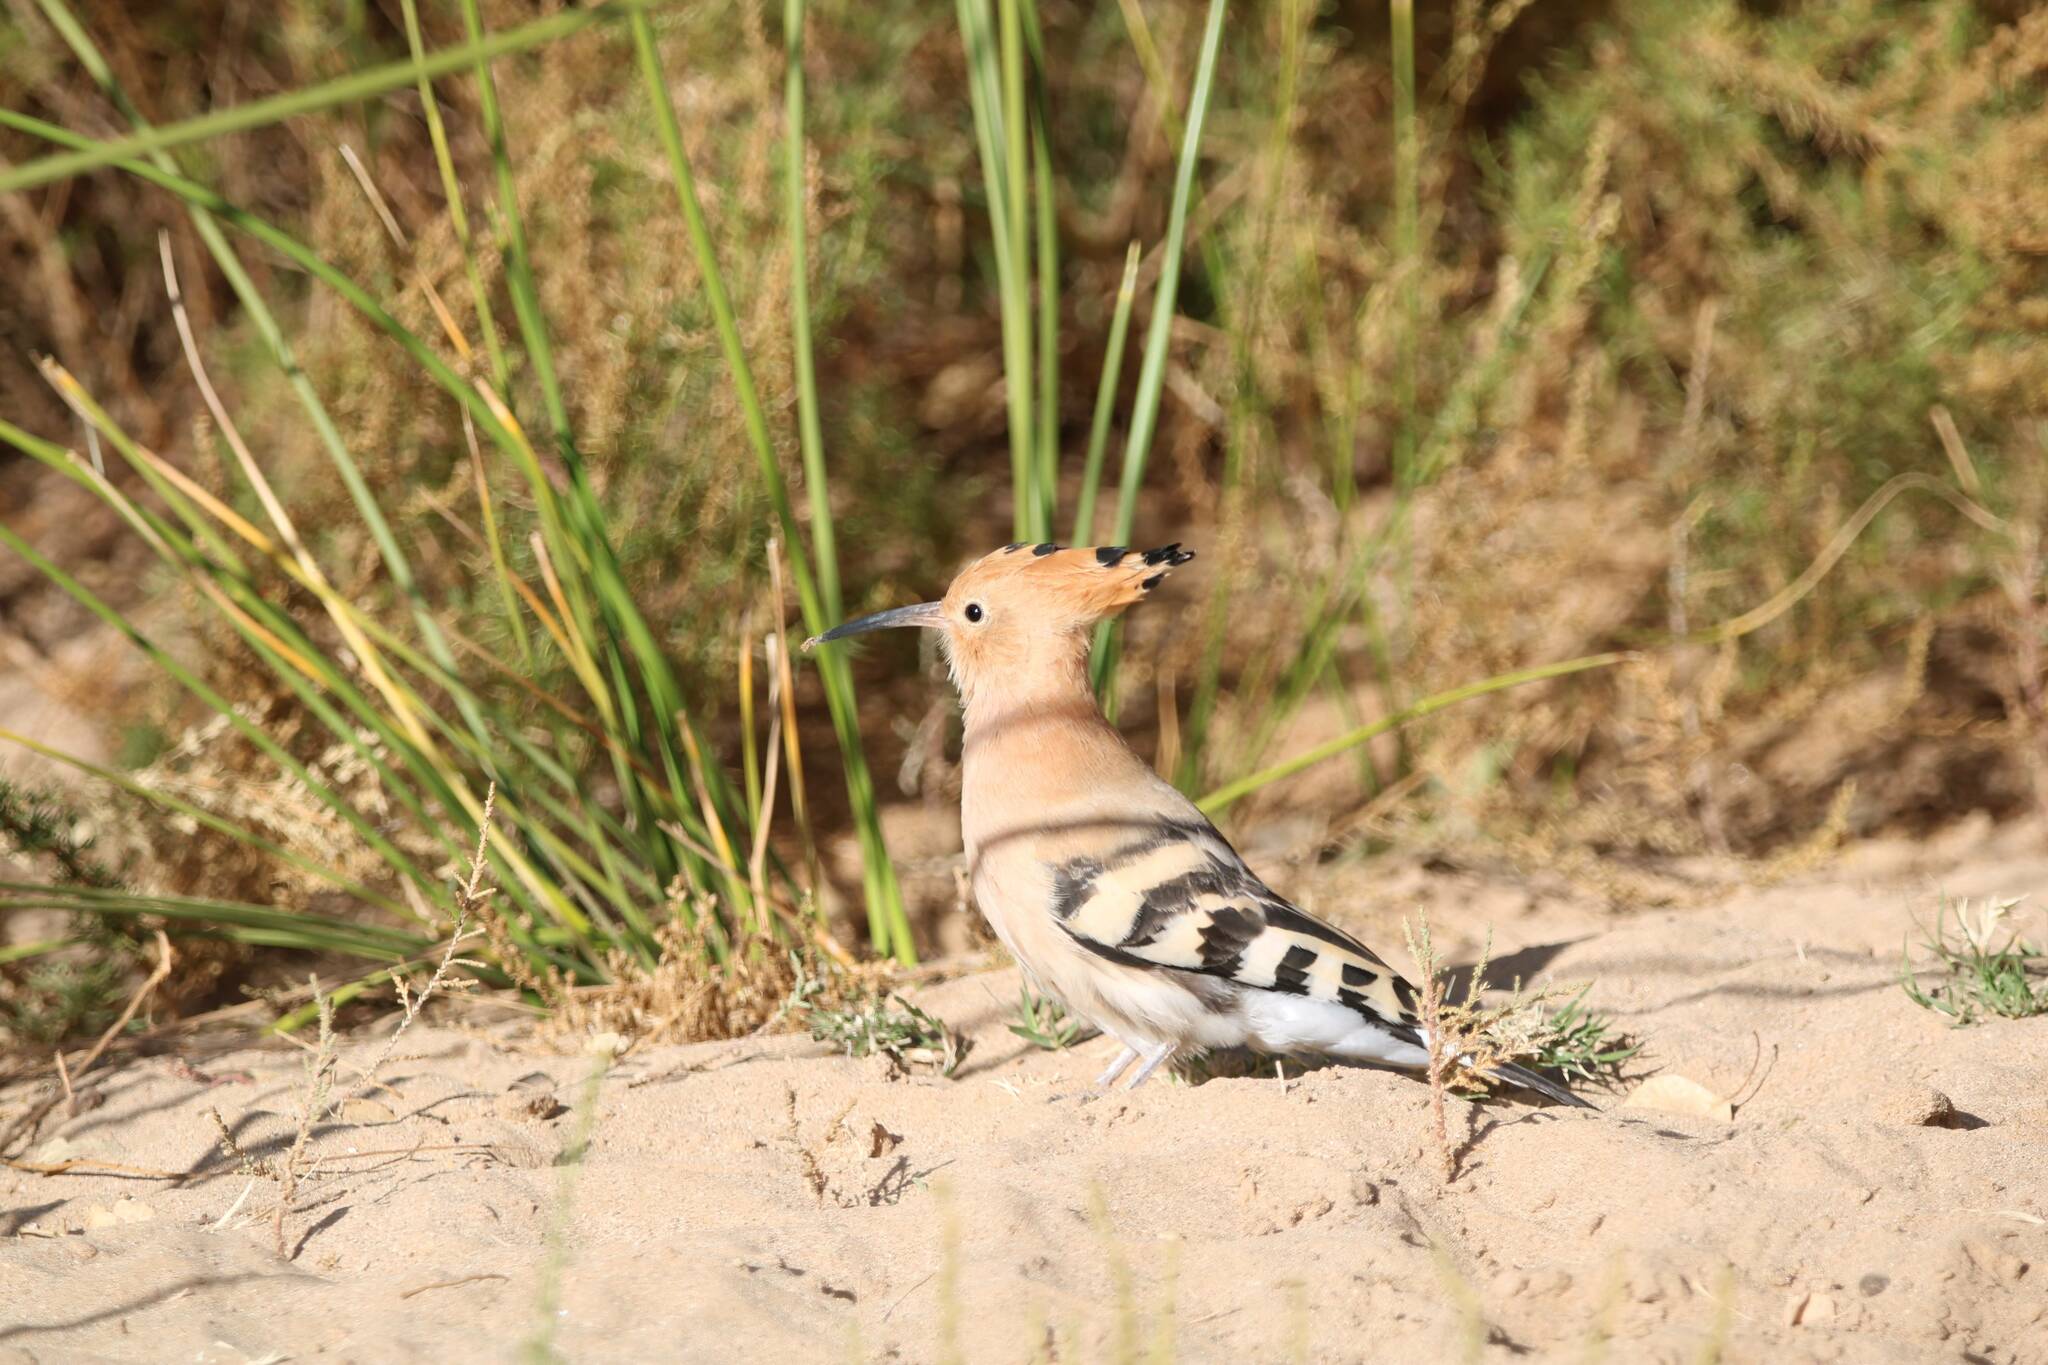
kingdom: Animalia
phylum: Chordata
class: Aves
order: Bucerotiformes
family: Upupidae
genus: Upupa
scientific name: Upupa epops
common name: Eurasian hoopoe
